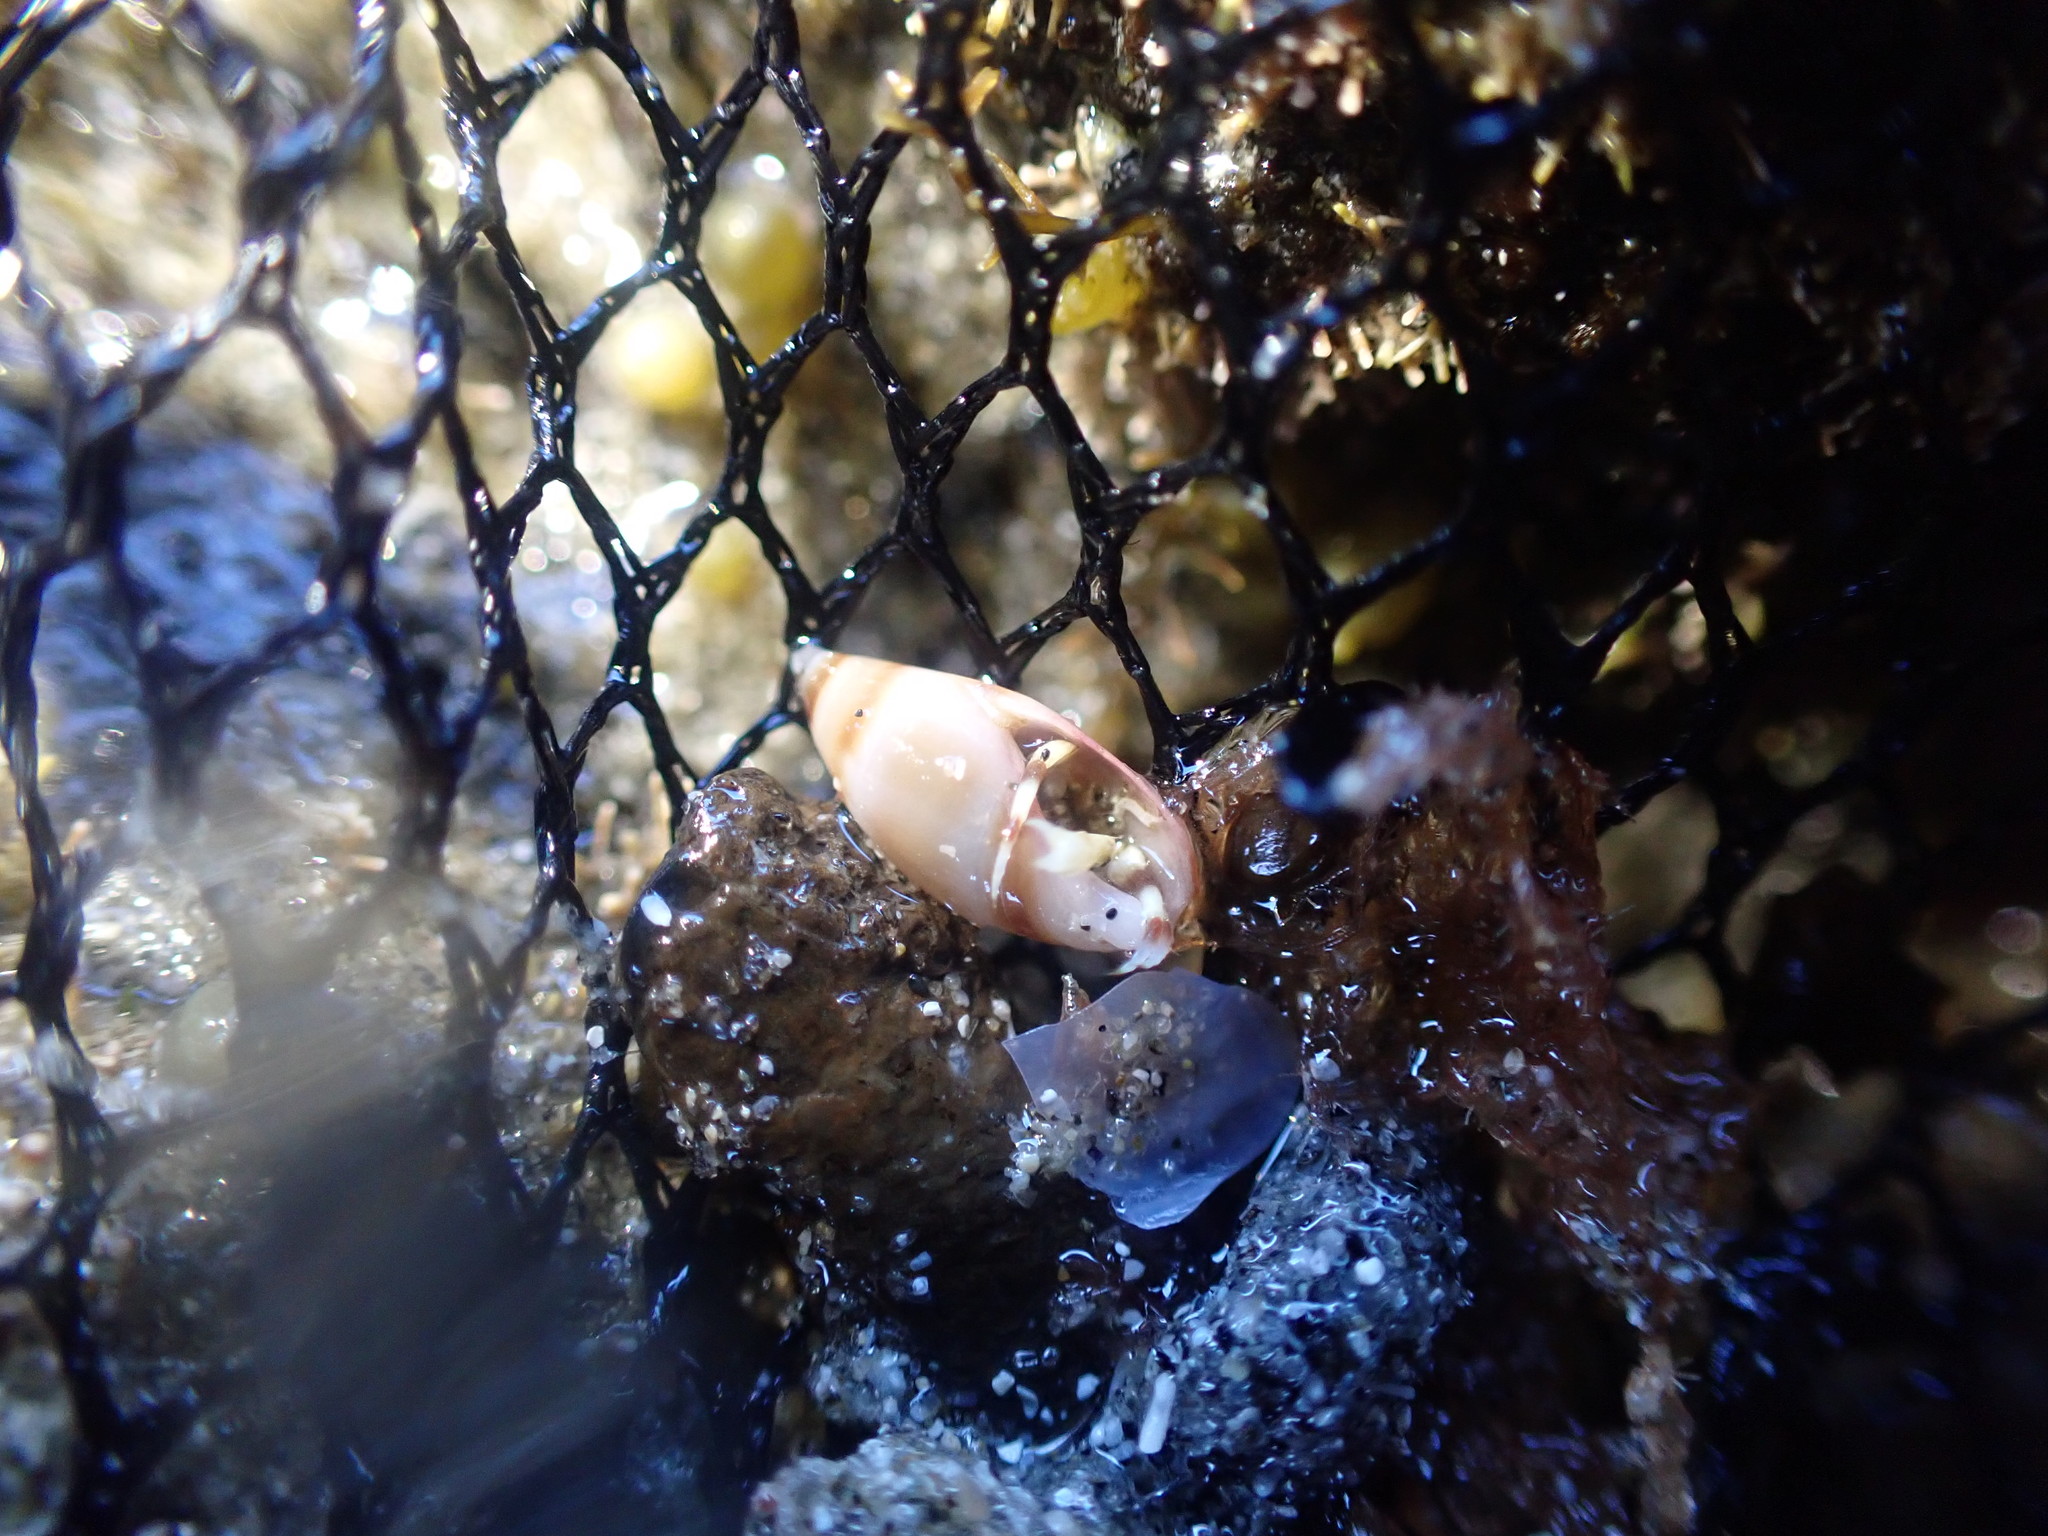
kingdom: Animalia
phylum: Mollusca
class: Gastropoda
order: Neogastropoda
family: Ancillariidae
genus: Amalda
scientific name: Amalda novaezelandiae
